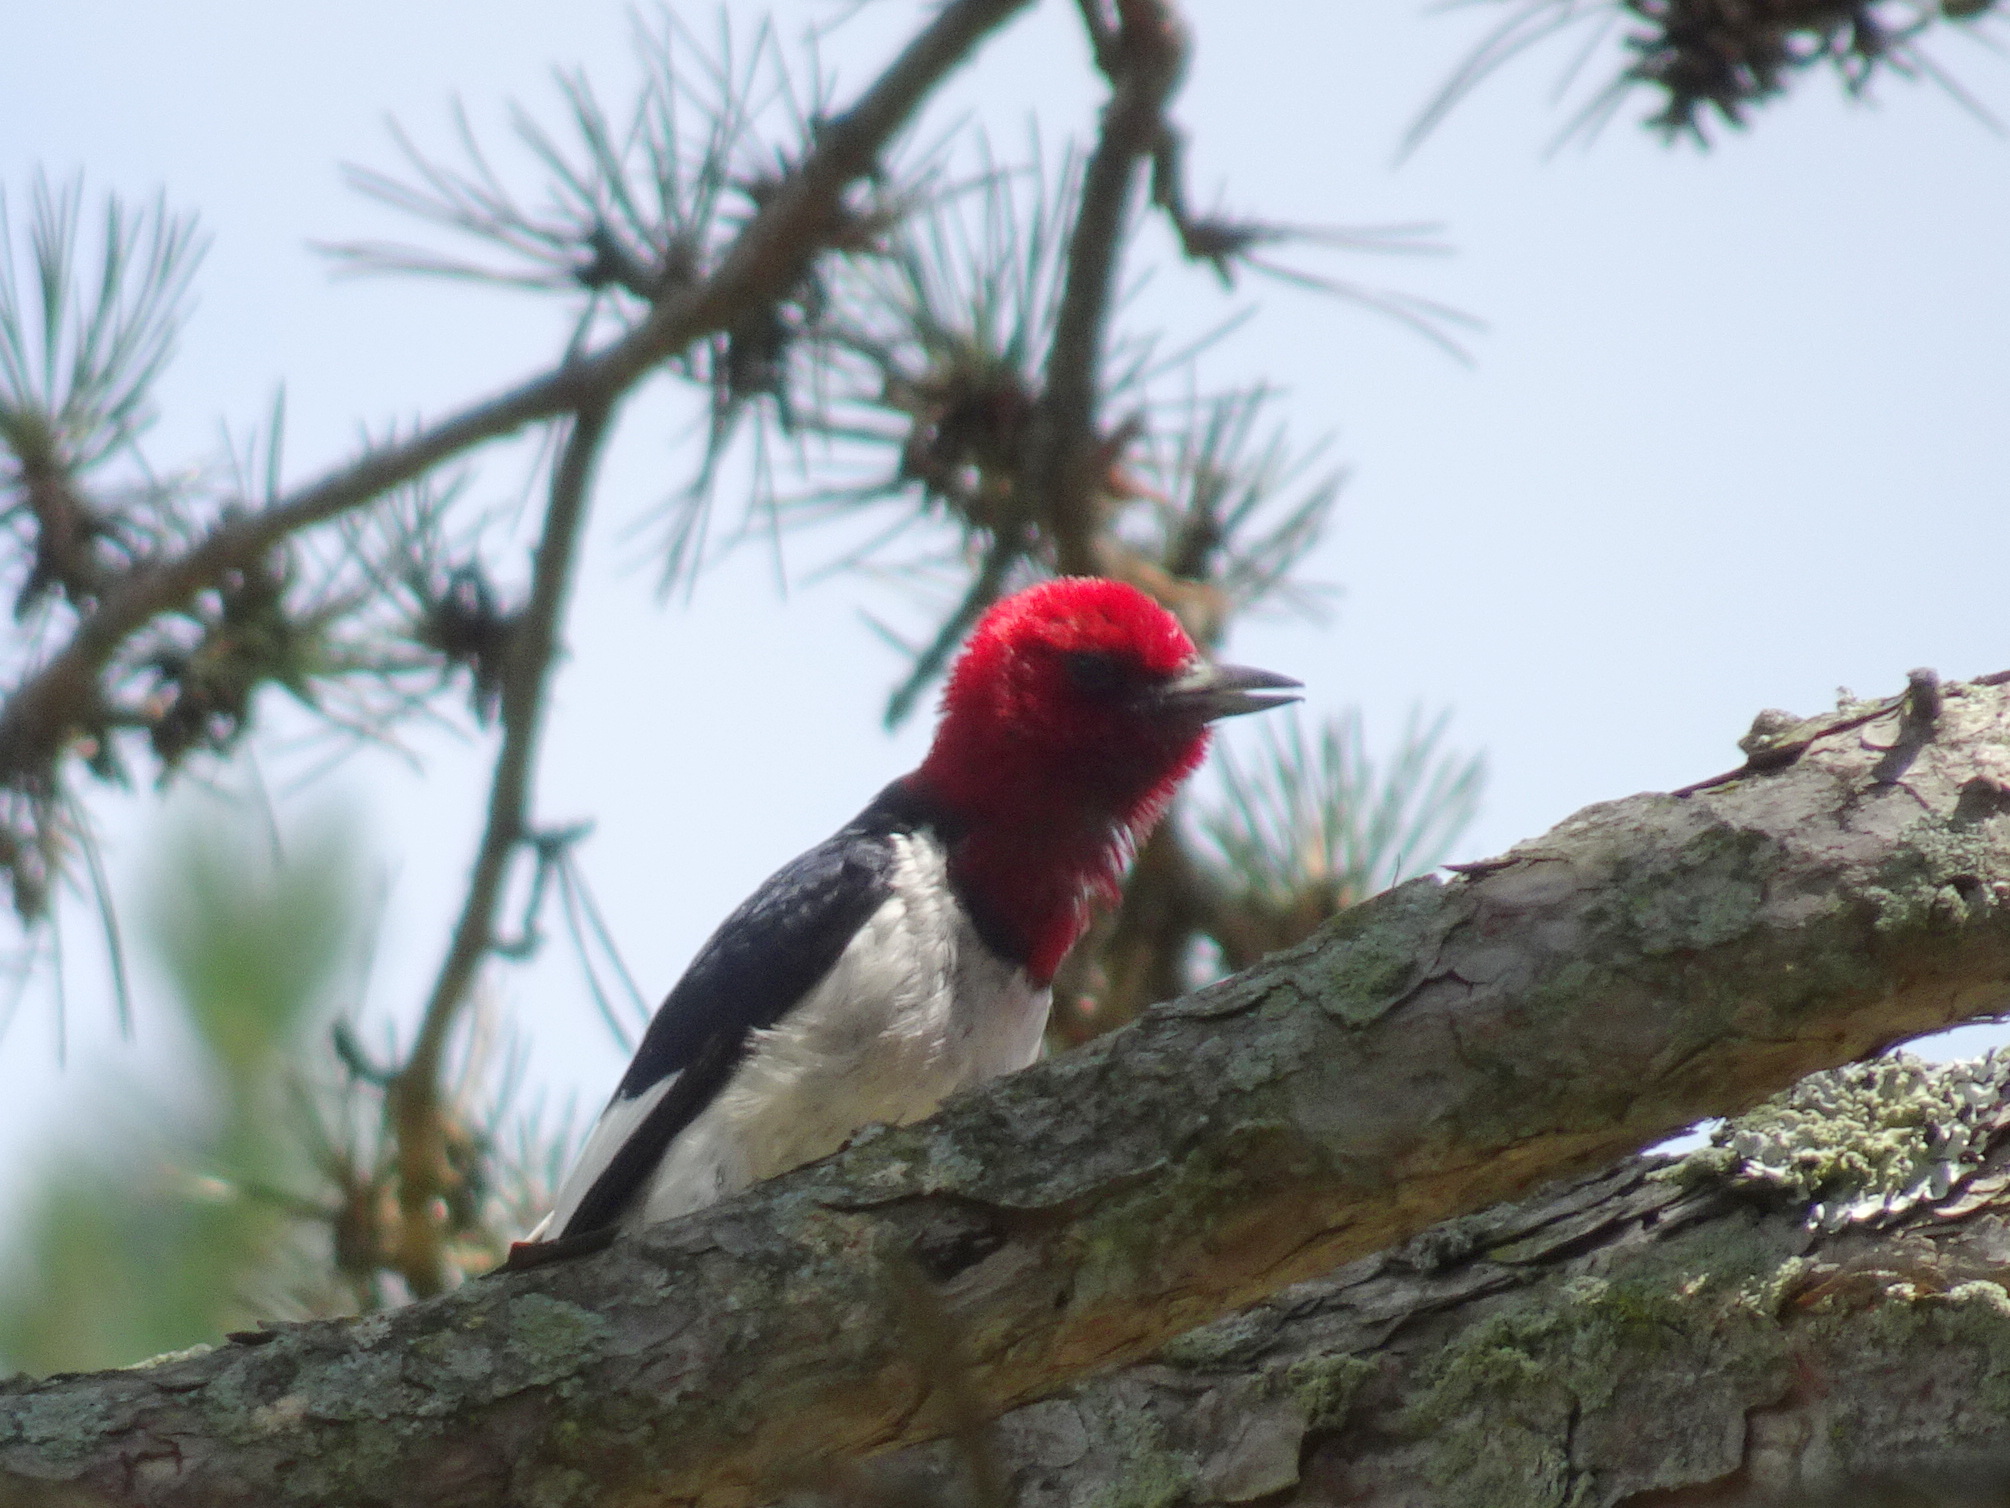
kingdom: Animalia
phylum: Chordata
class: Aves
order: Piciformes
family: Picidae
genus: Melanerpes
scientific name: Melanerpes erythrocephalus
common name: Red-headed woodpecker
